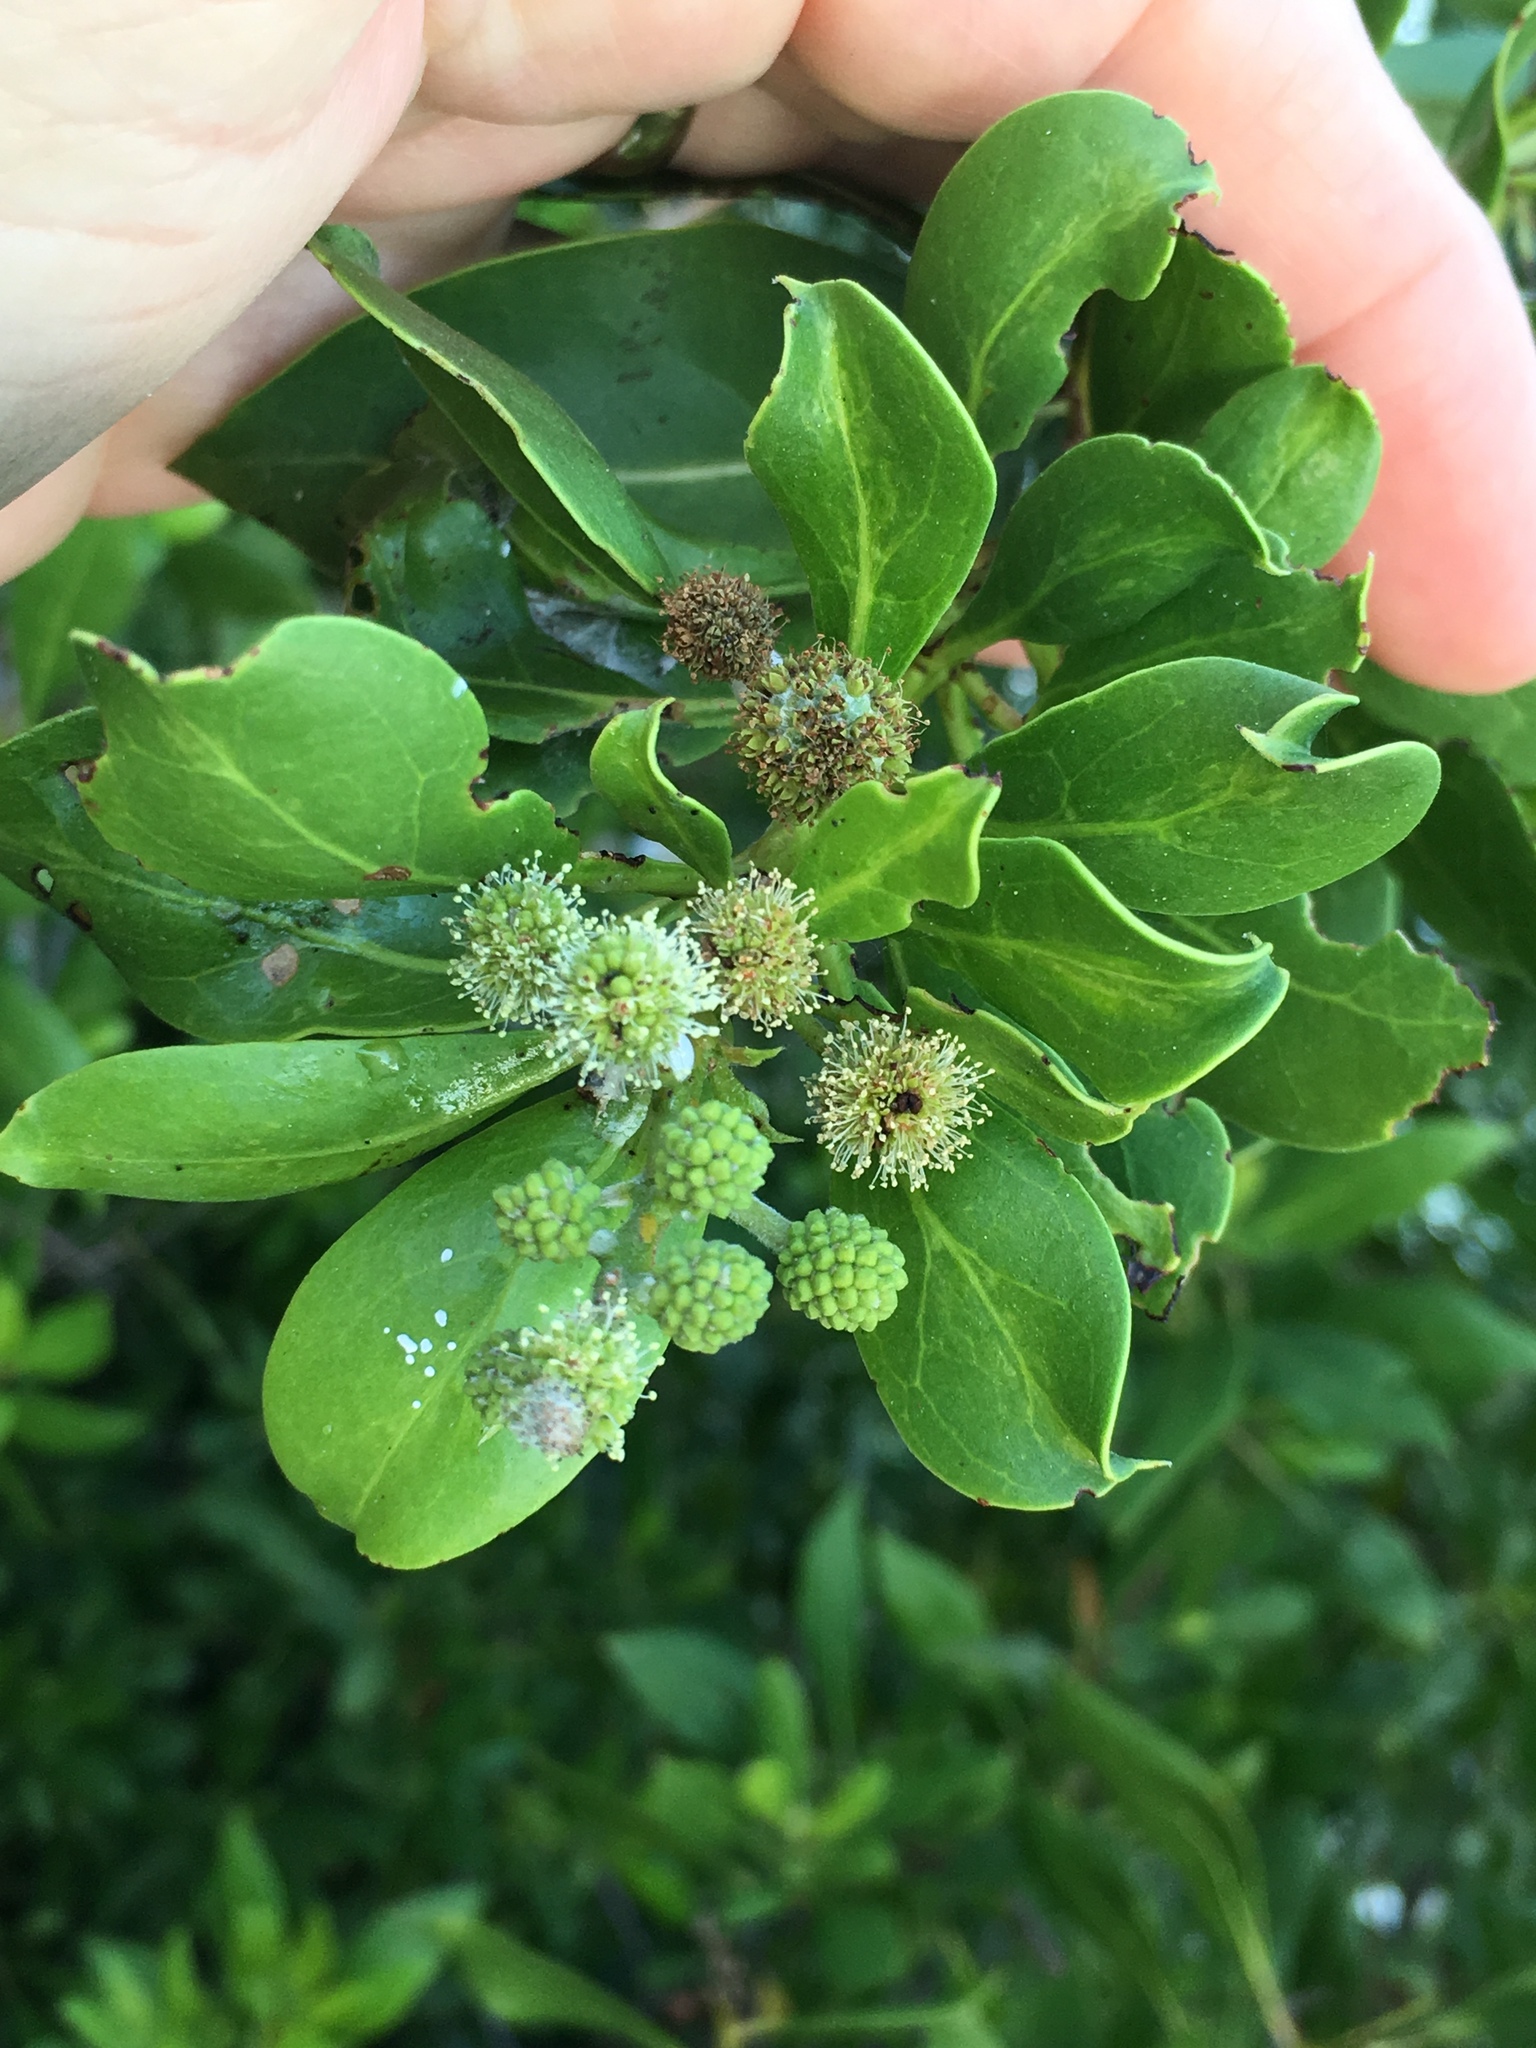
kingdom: Plantae
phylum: Tracheophyta
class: Magnoliopsida
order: Myrtales
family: Combretaceae
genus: Conocarpus
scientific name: Conocarpus erectus
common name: Button mangrove
